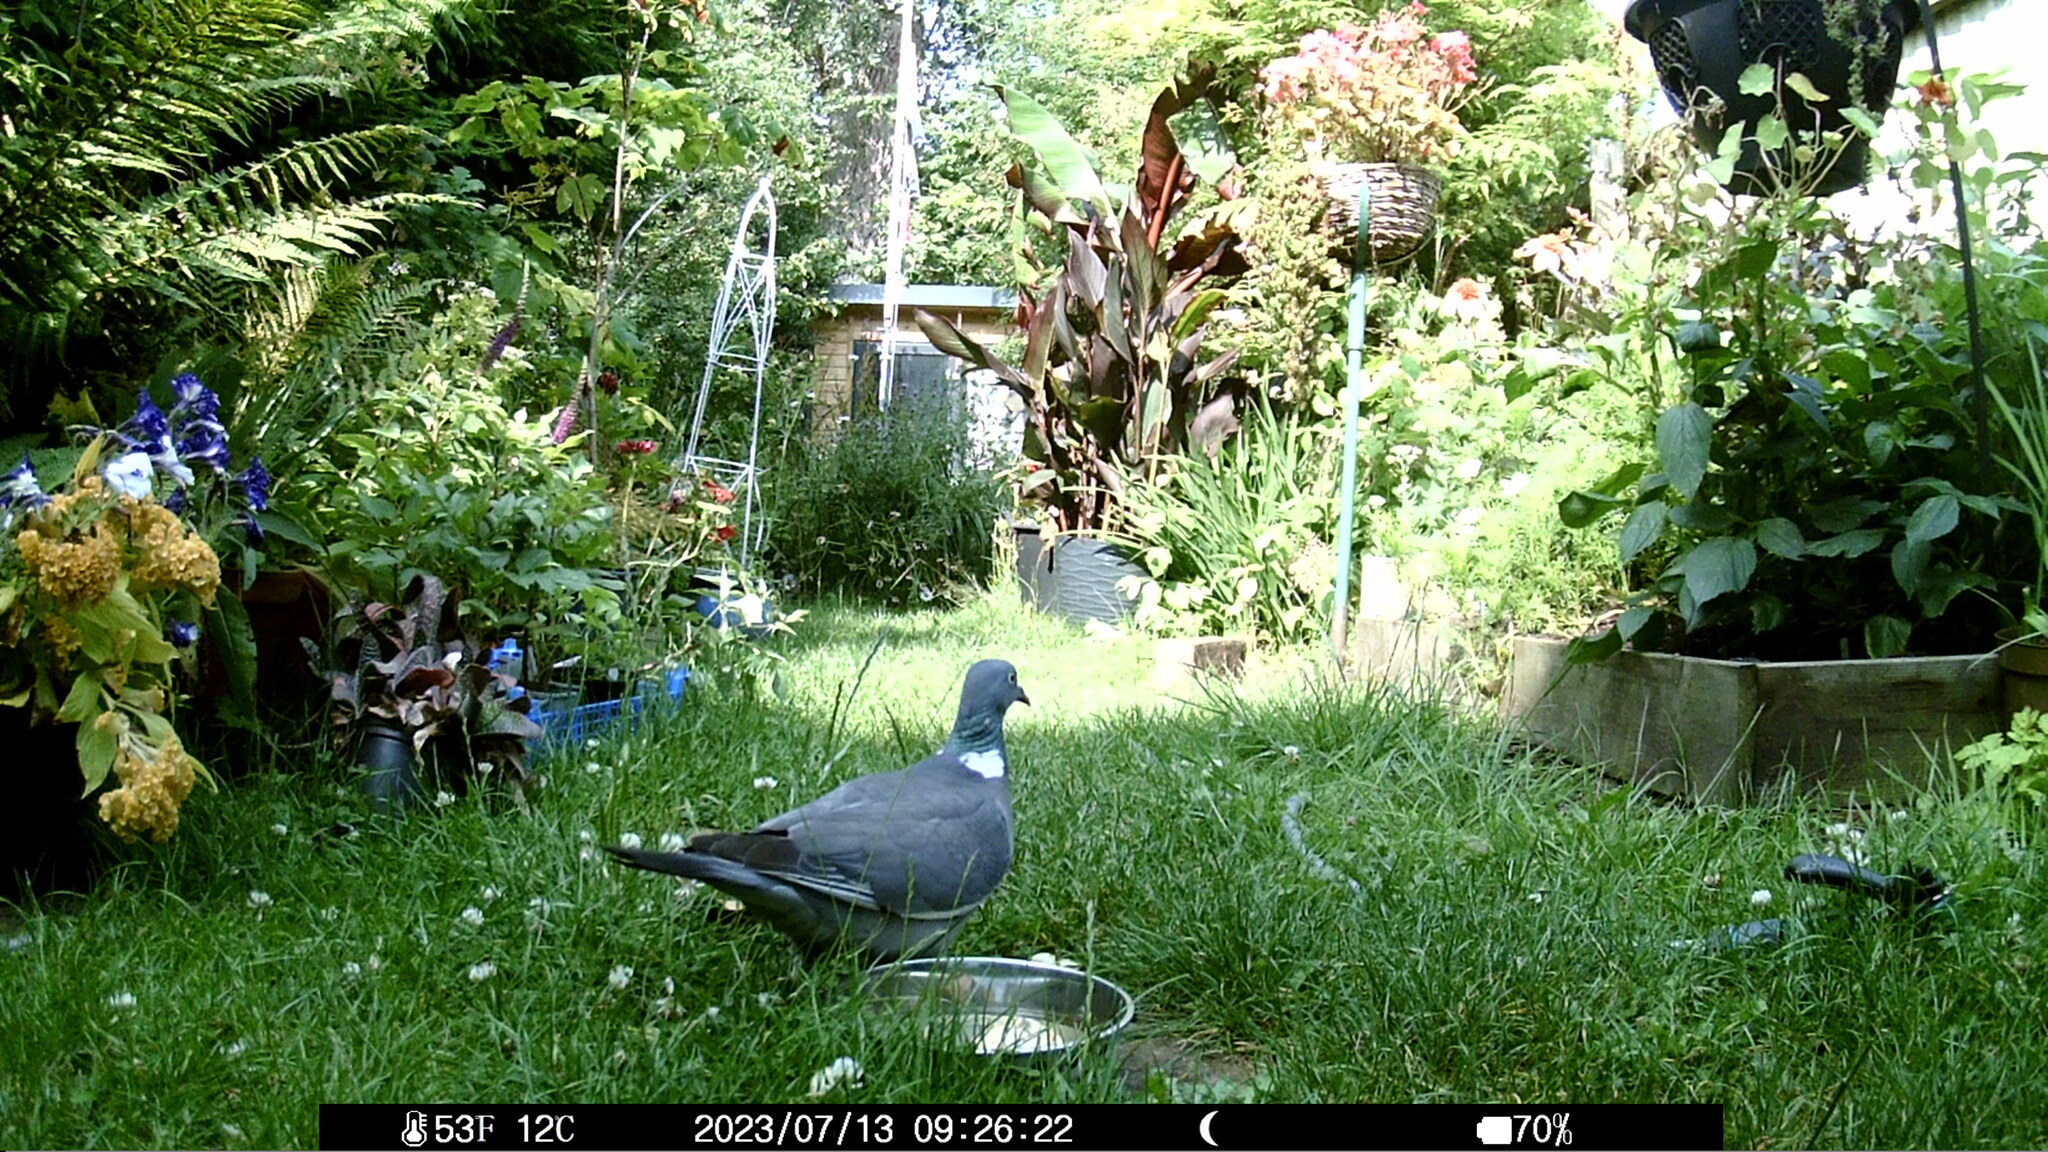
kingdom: Animalia
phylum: Chordata
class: Aves
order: Columbiformes
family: Columbidae
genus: Columba
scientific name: Columba palumbus
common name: Common wood pigeon
